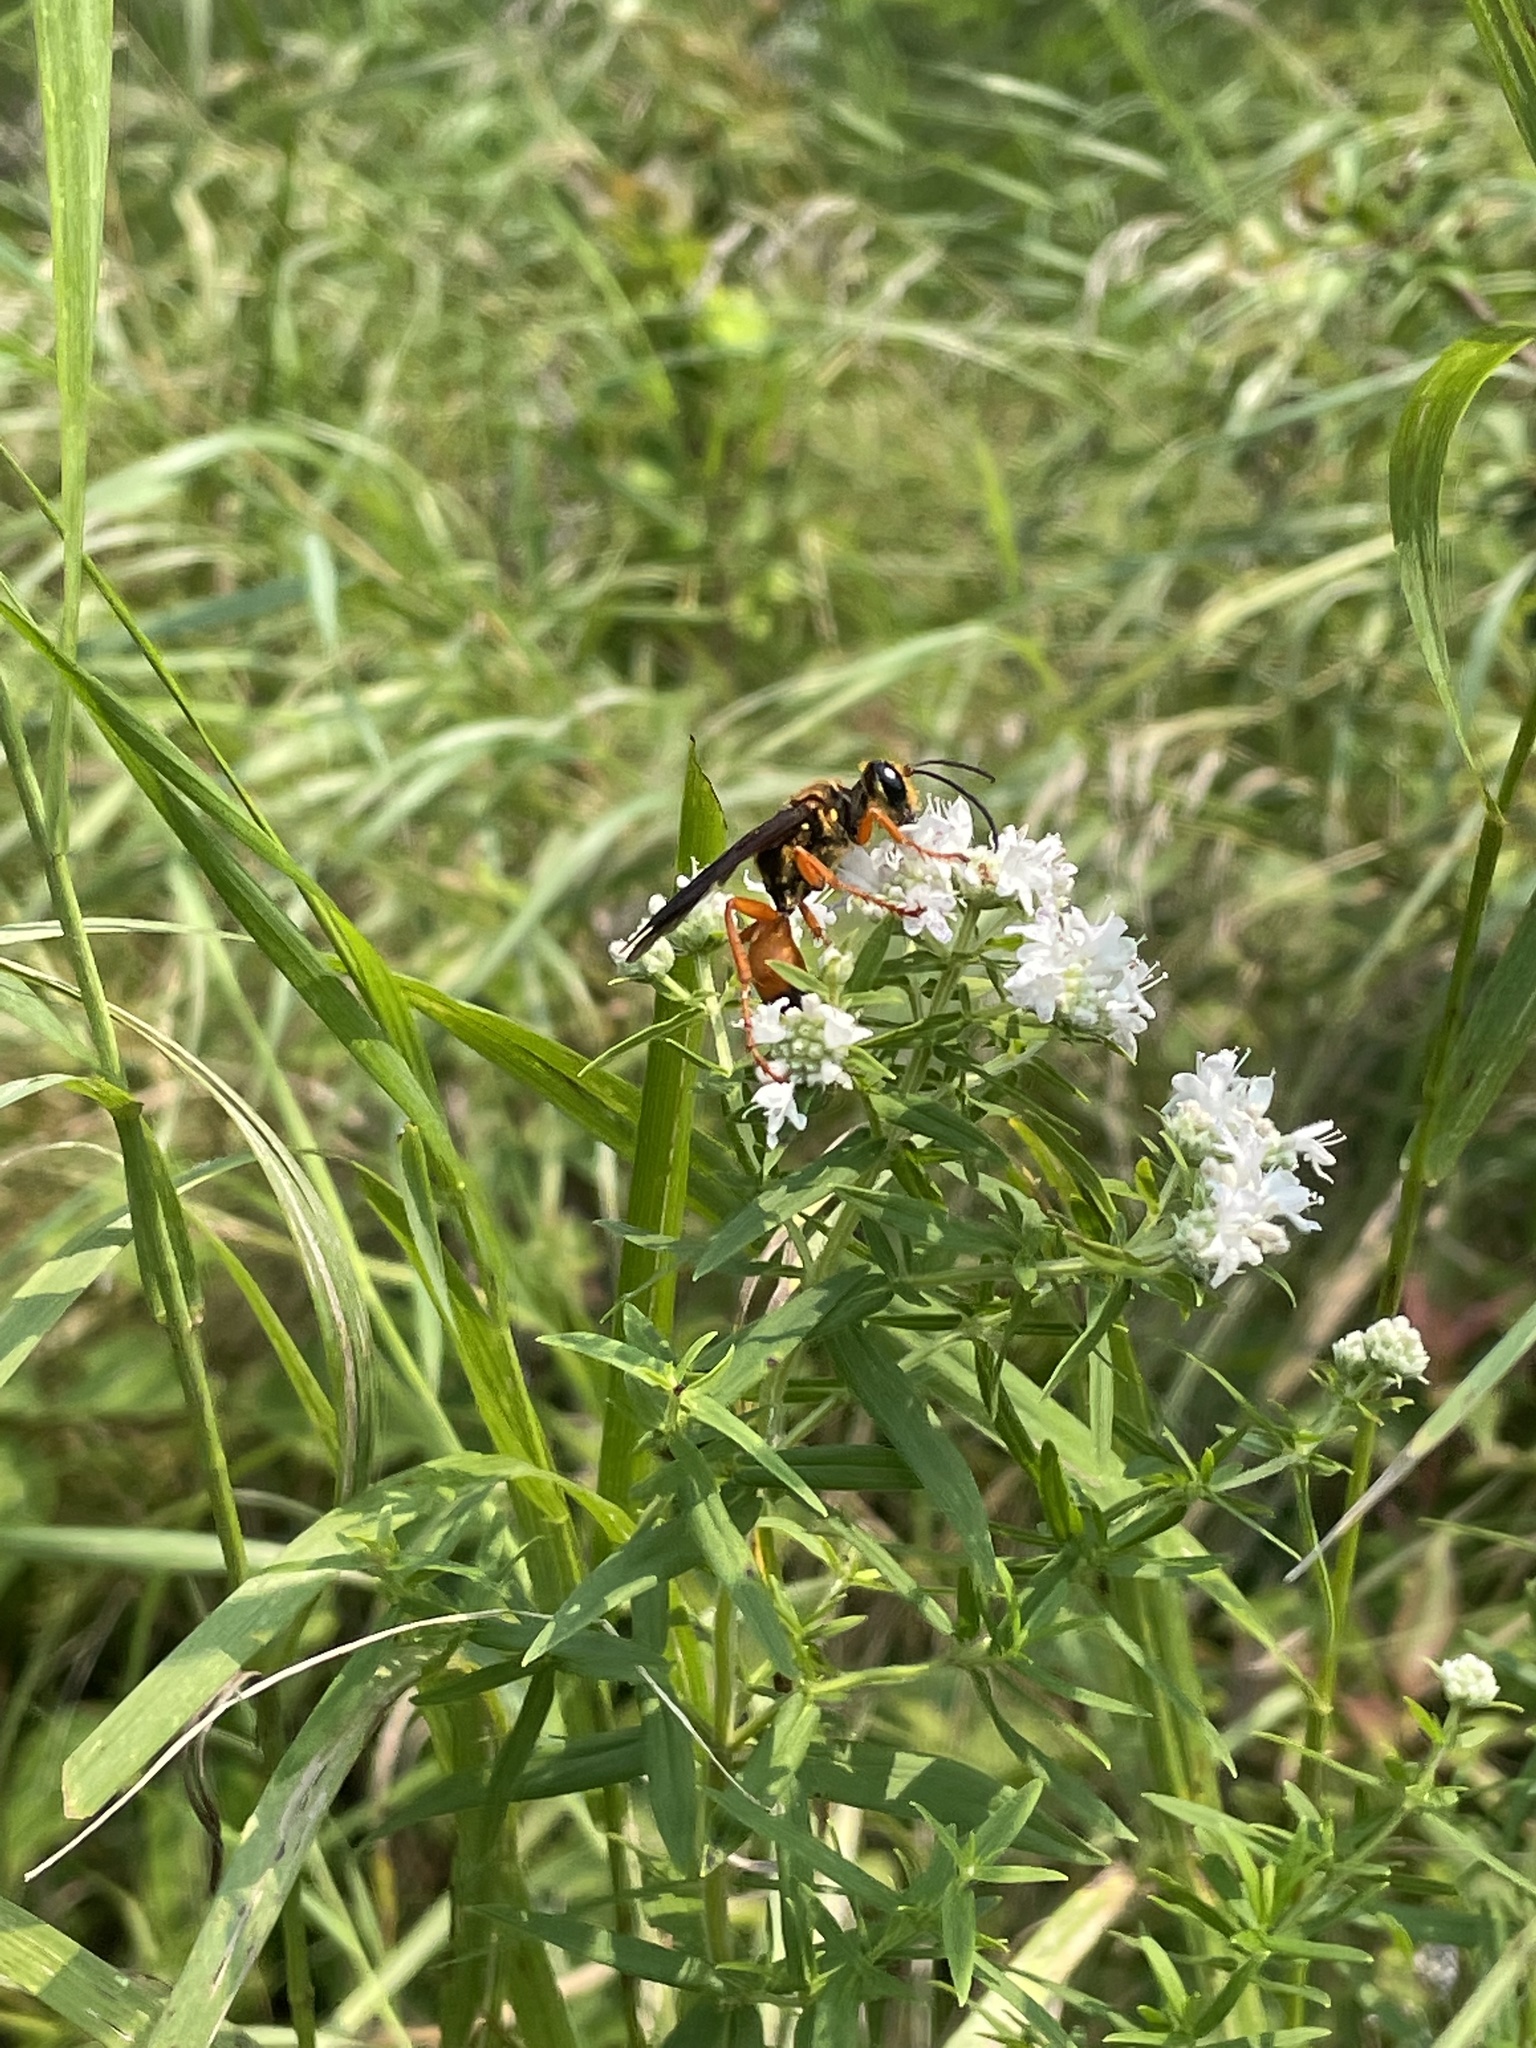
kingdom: Animalia
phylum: Arthropoda
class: Insecta
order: Hymenoptera
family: Sphecidae
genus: Sphex
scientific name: Sphex ichneumoneus
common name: Great golden digger wasp
